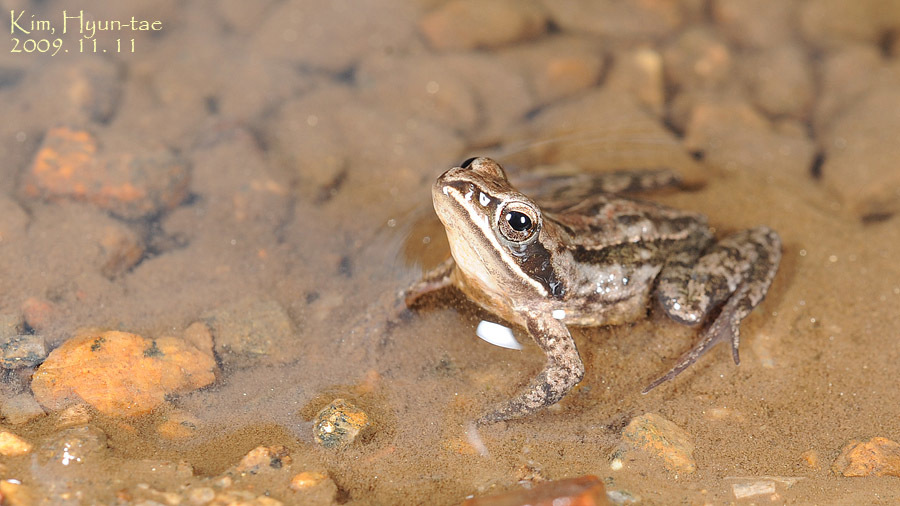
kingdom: Animalia
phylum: Chordata
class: Amphibia
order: Anura
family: Ranidae
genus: Rana
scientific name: Rana coreana
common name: Korean brown frog
